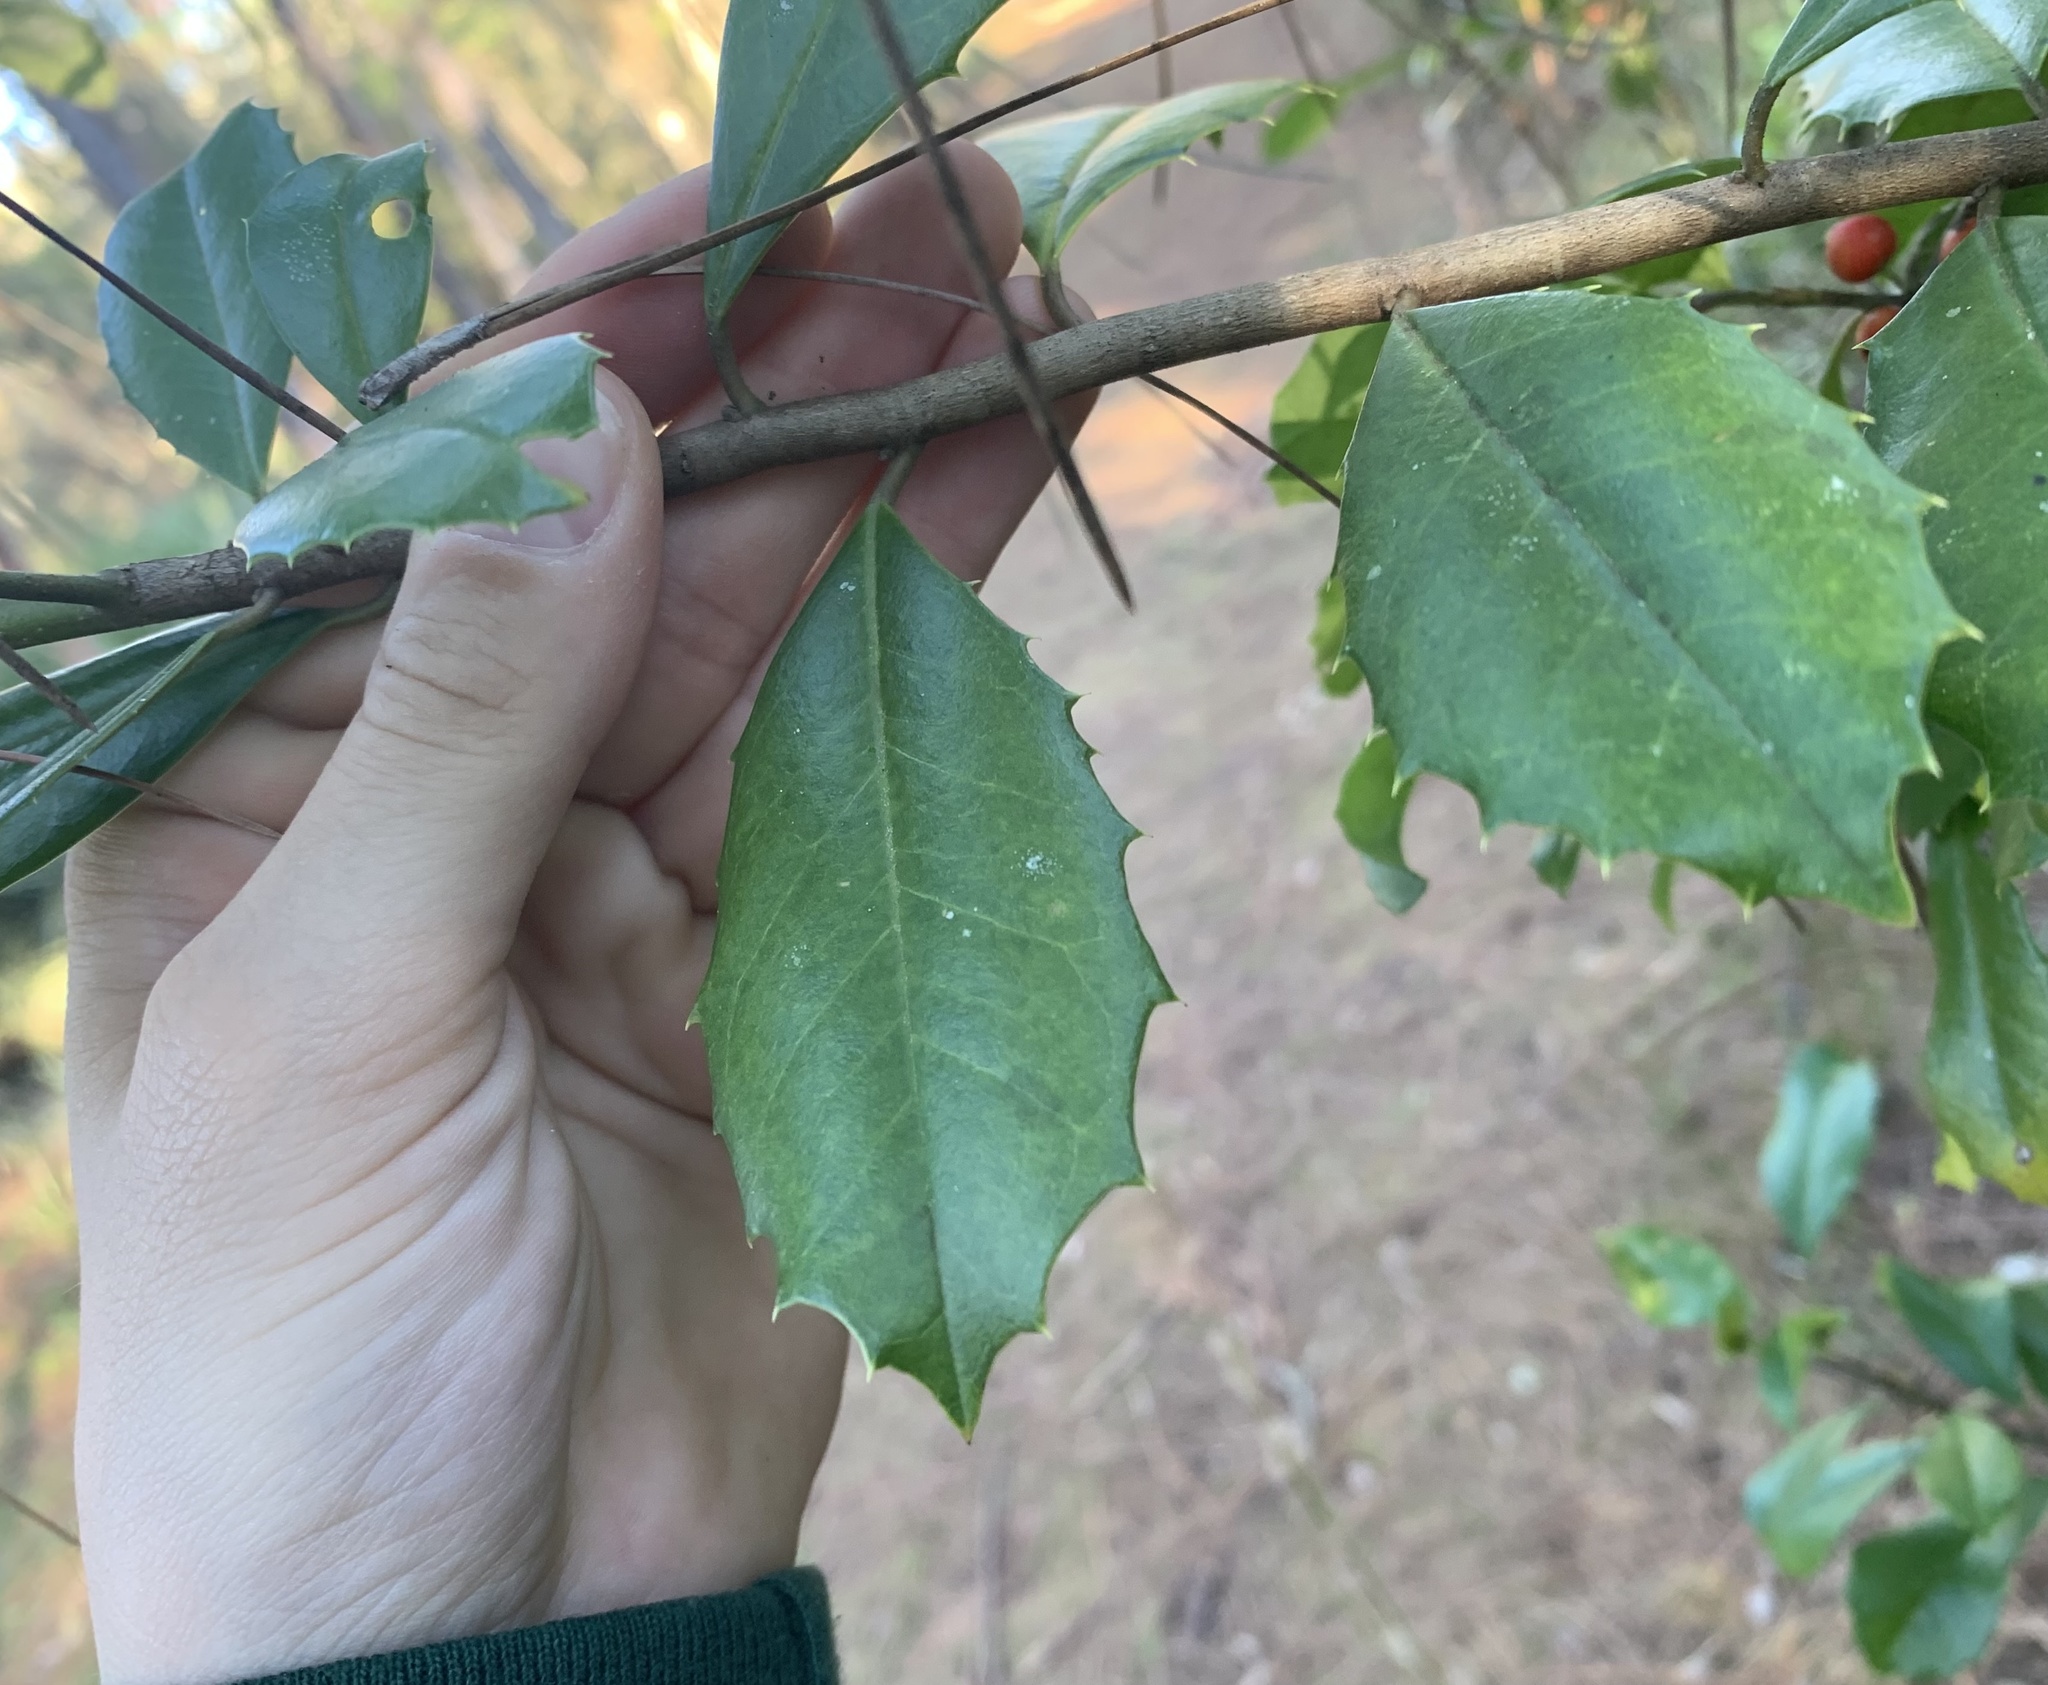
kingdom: Plantae
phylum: Tracheophyta
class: Magnoliopsida
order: Aquifoliales
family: Aquifoliaceae
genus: Ilex
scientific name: Ilex opaca
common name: American holly
